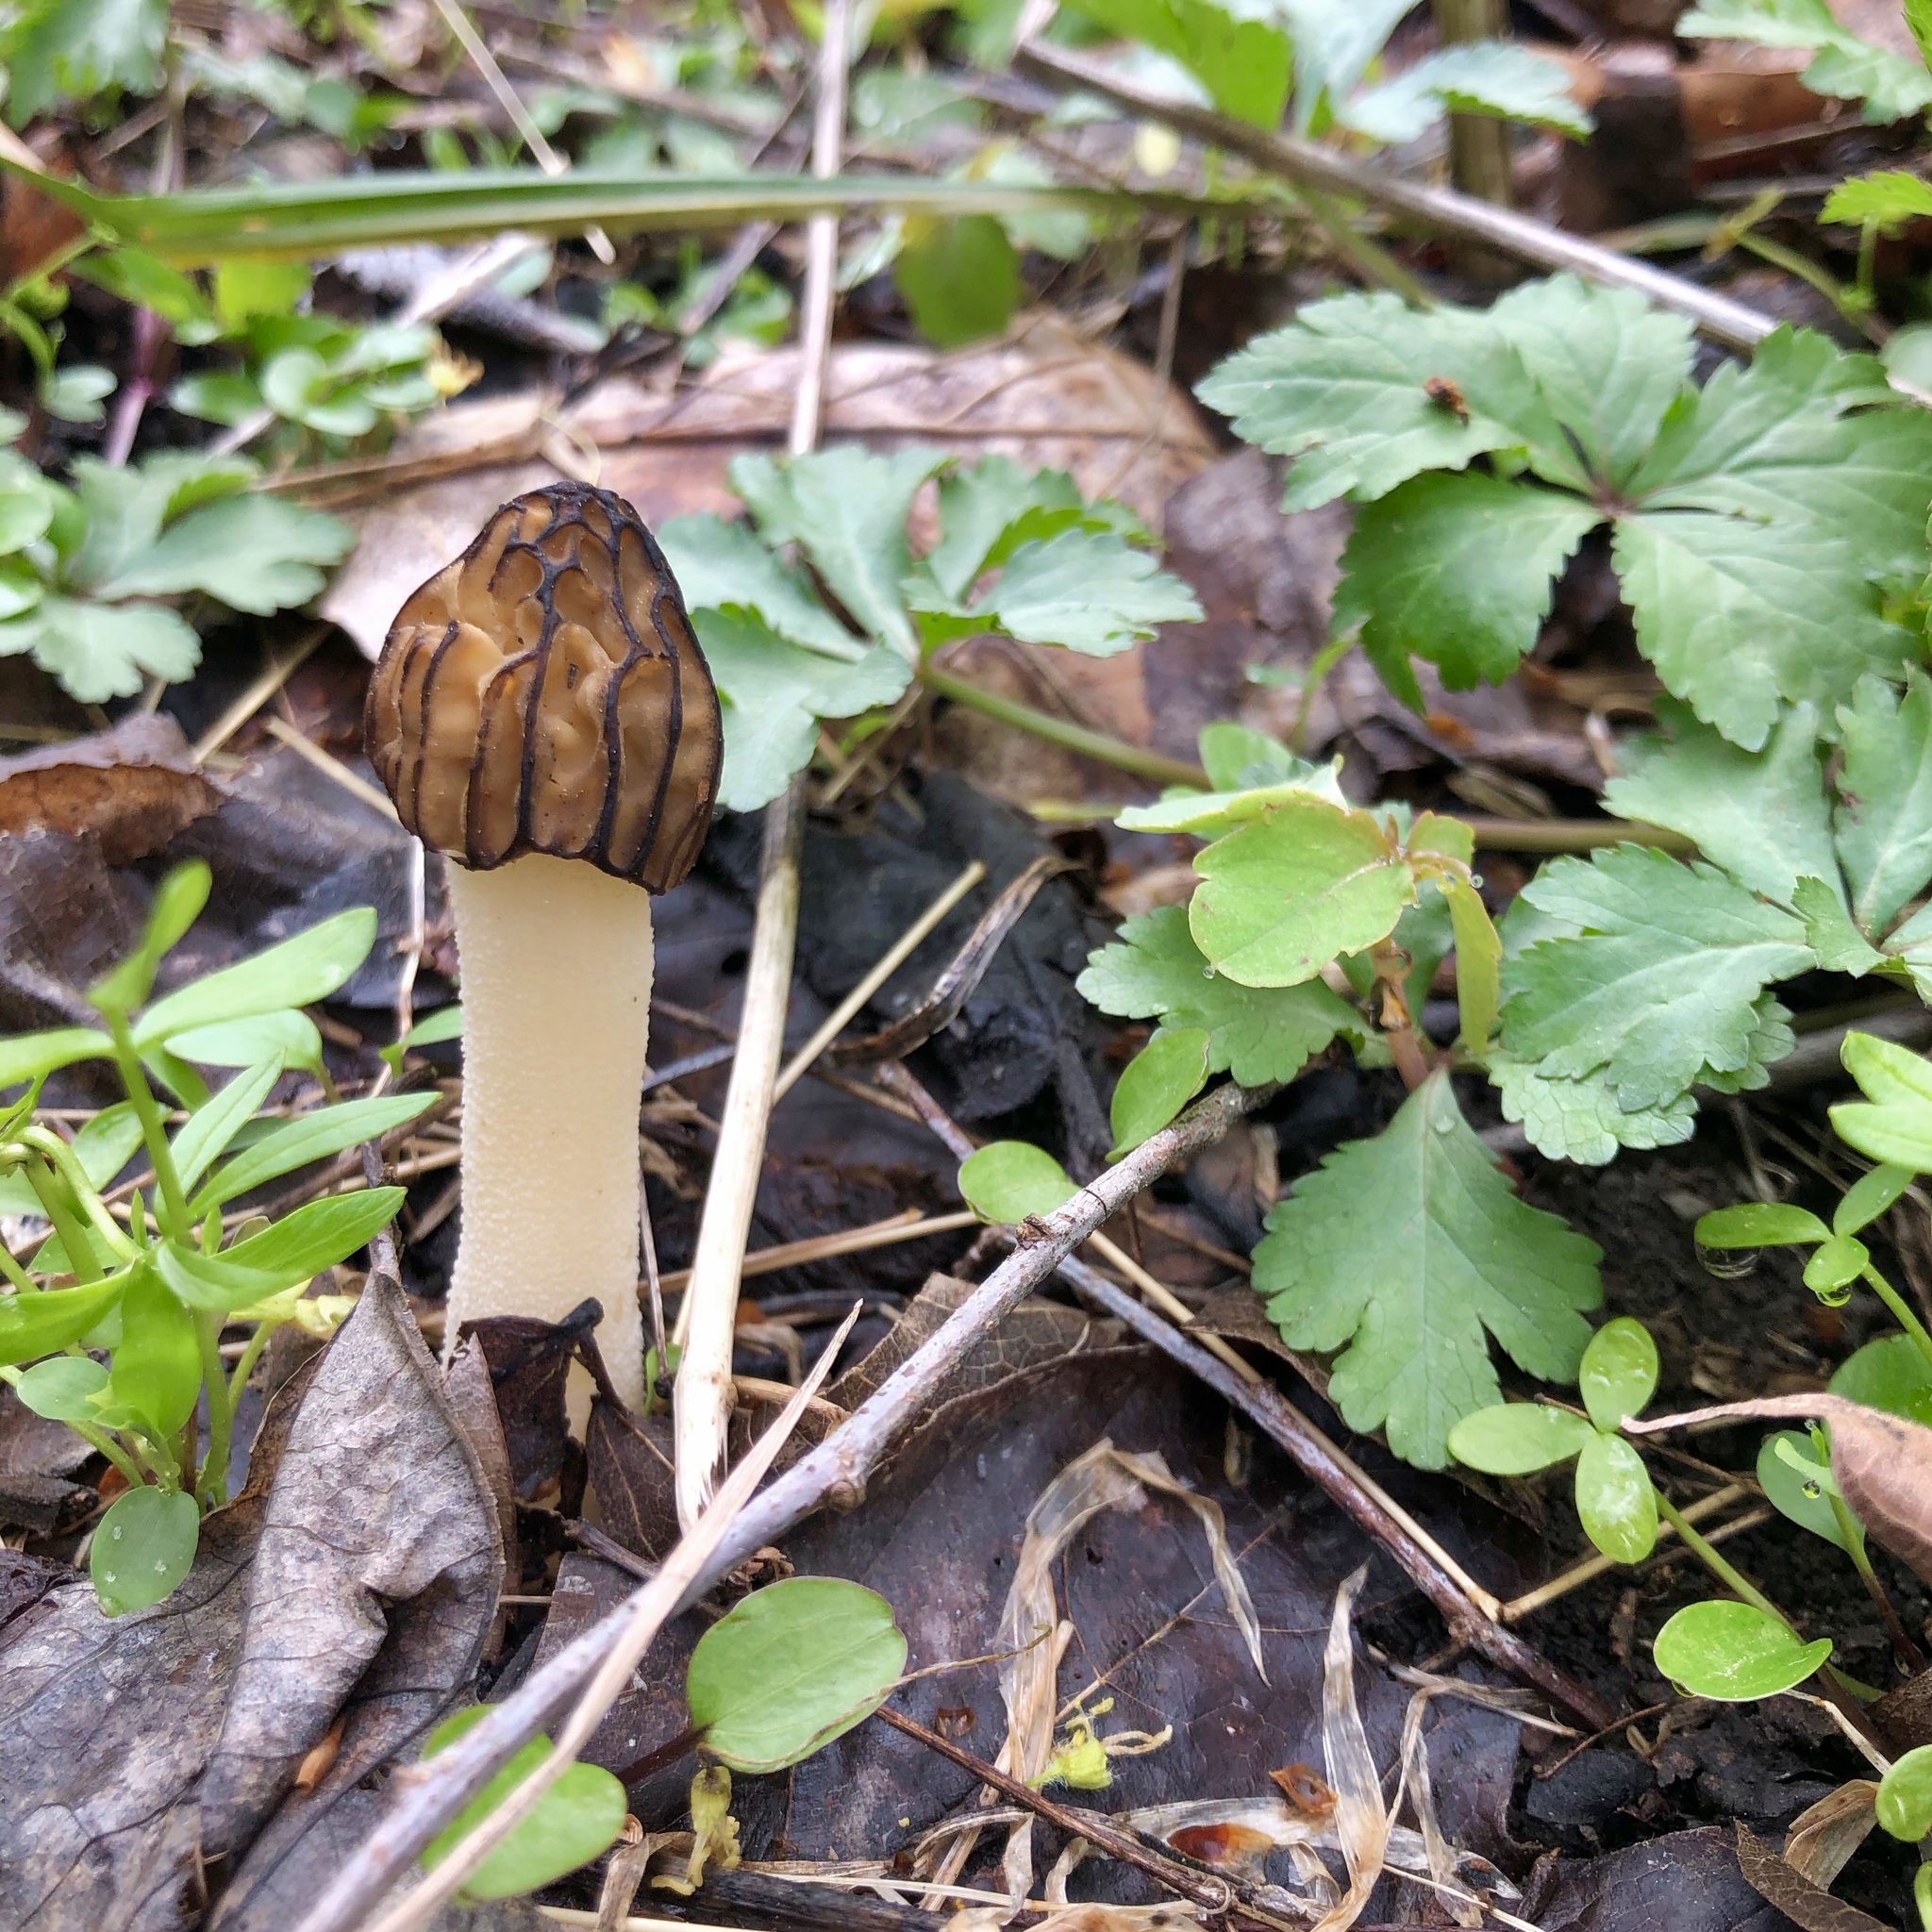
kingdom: Fungi
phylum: Ascomycota
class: Pezizomycetes
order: Pezizales
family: Morchellaceae
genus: Morchella
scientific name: Morchella punctipes
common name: Half-free morel
